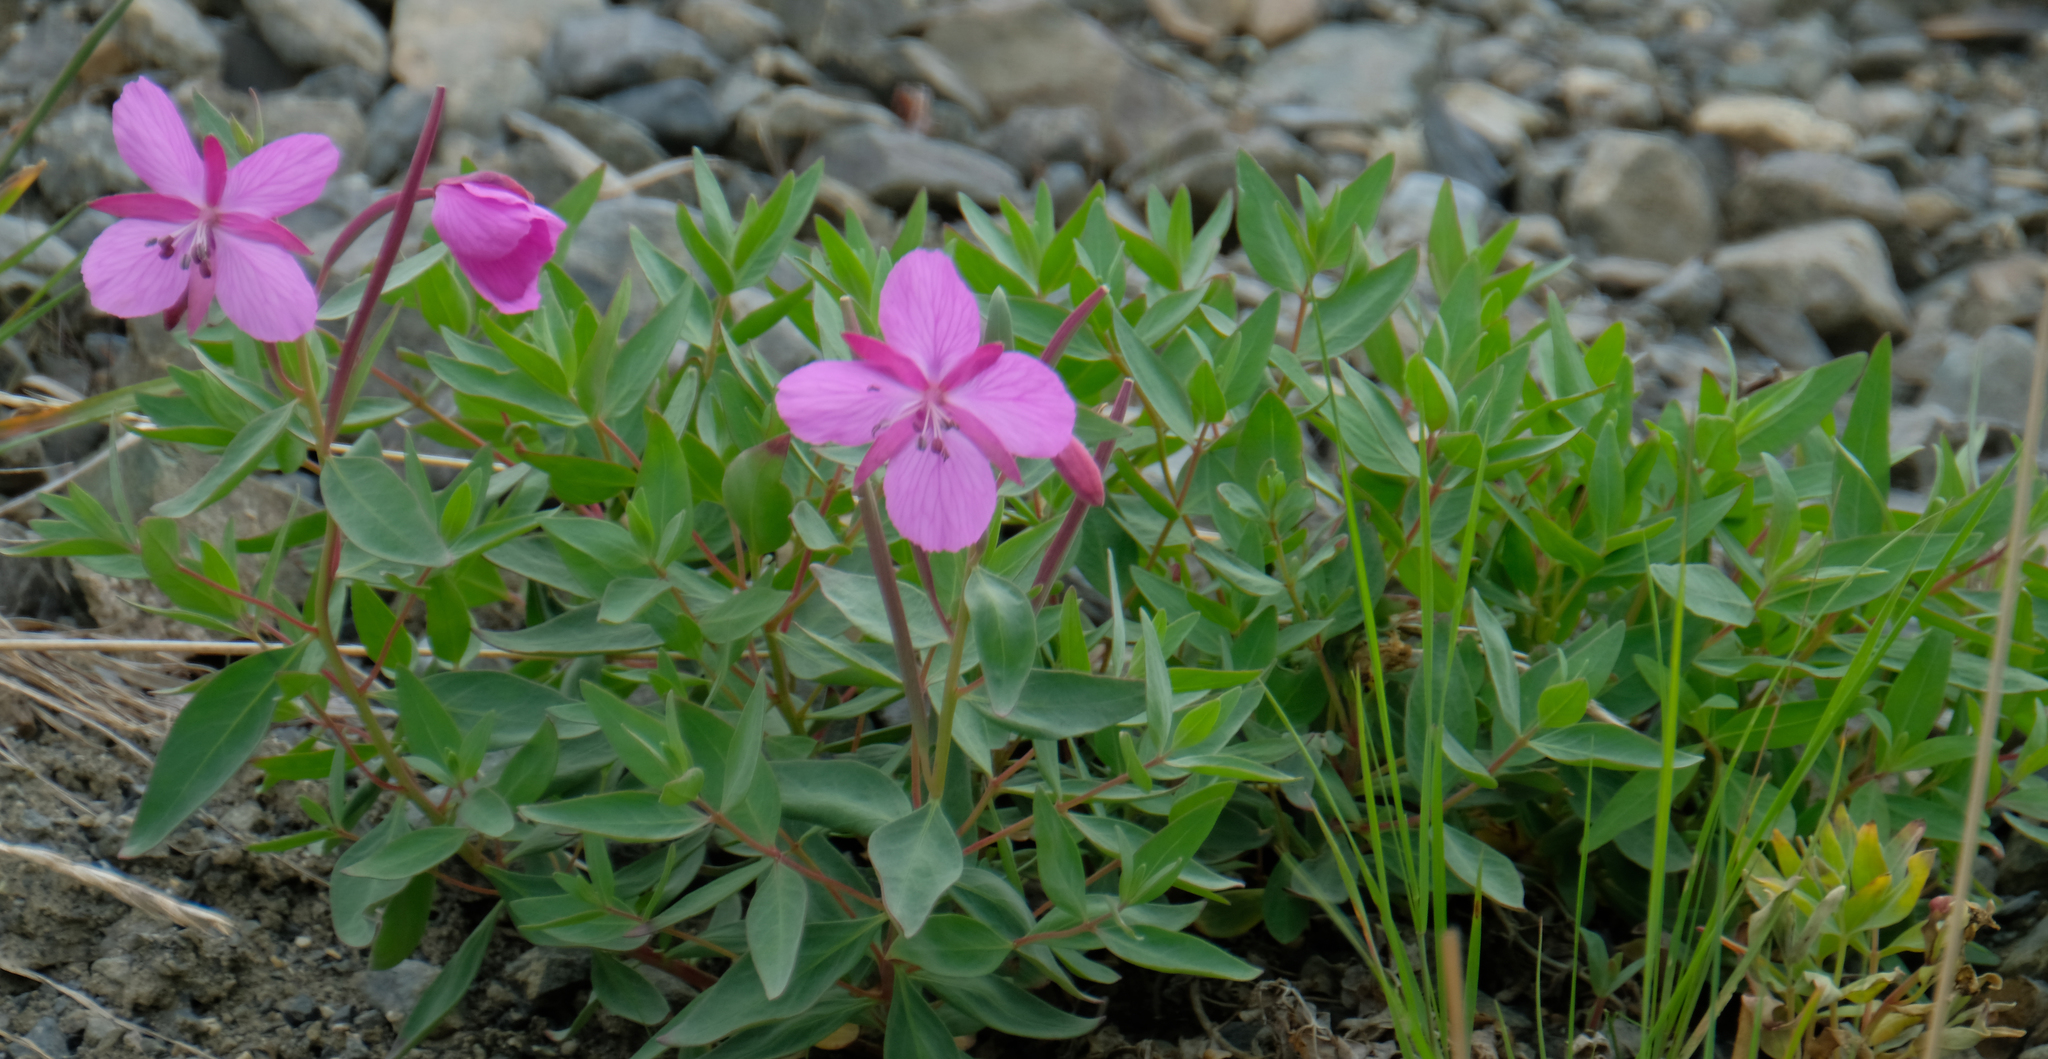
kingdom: Plantae
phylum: Tracheophyta
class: Magnoliopsida
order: Myrtales
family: Onagraceae
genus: Chamaenerion
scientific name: Chamaenerion latifolium
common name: Dwarf fireweed
